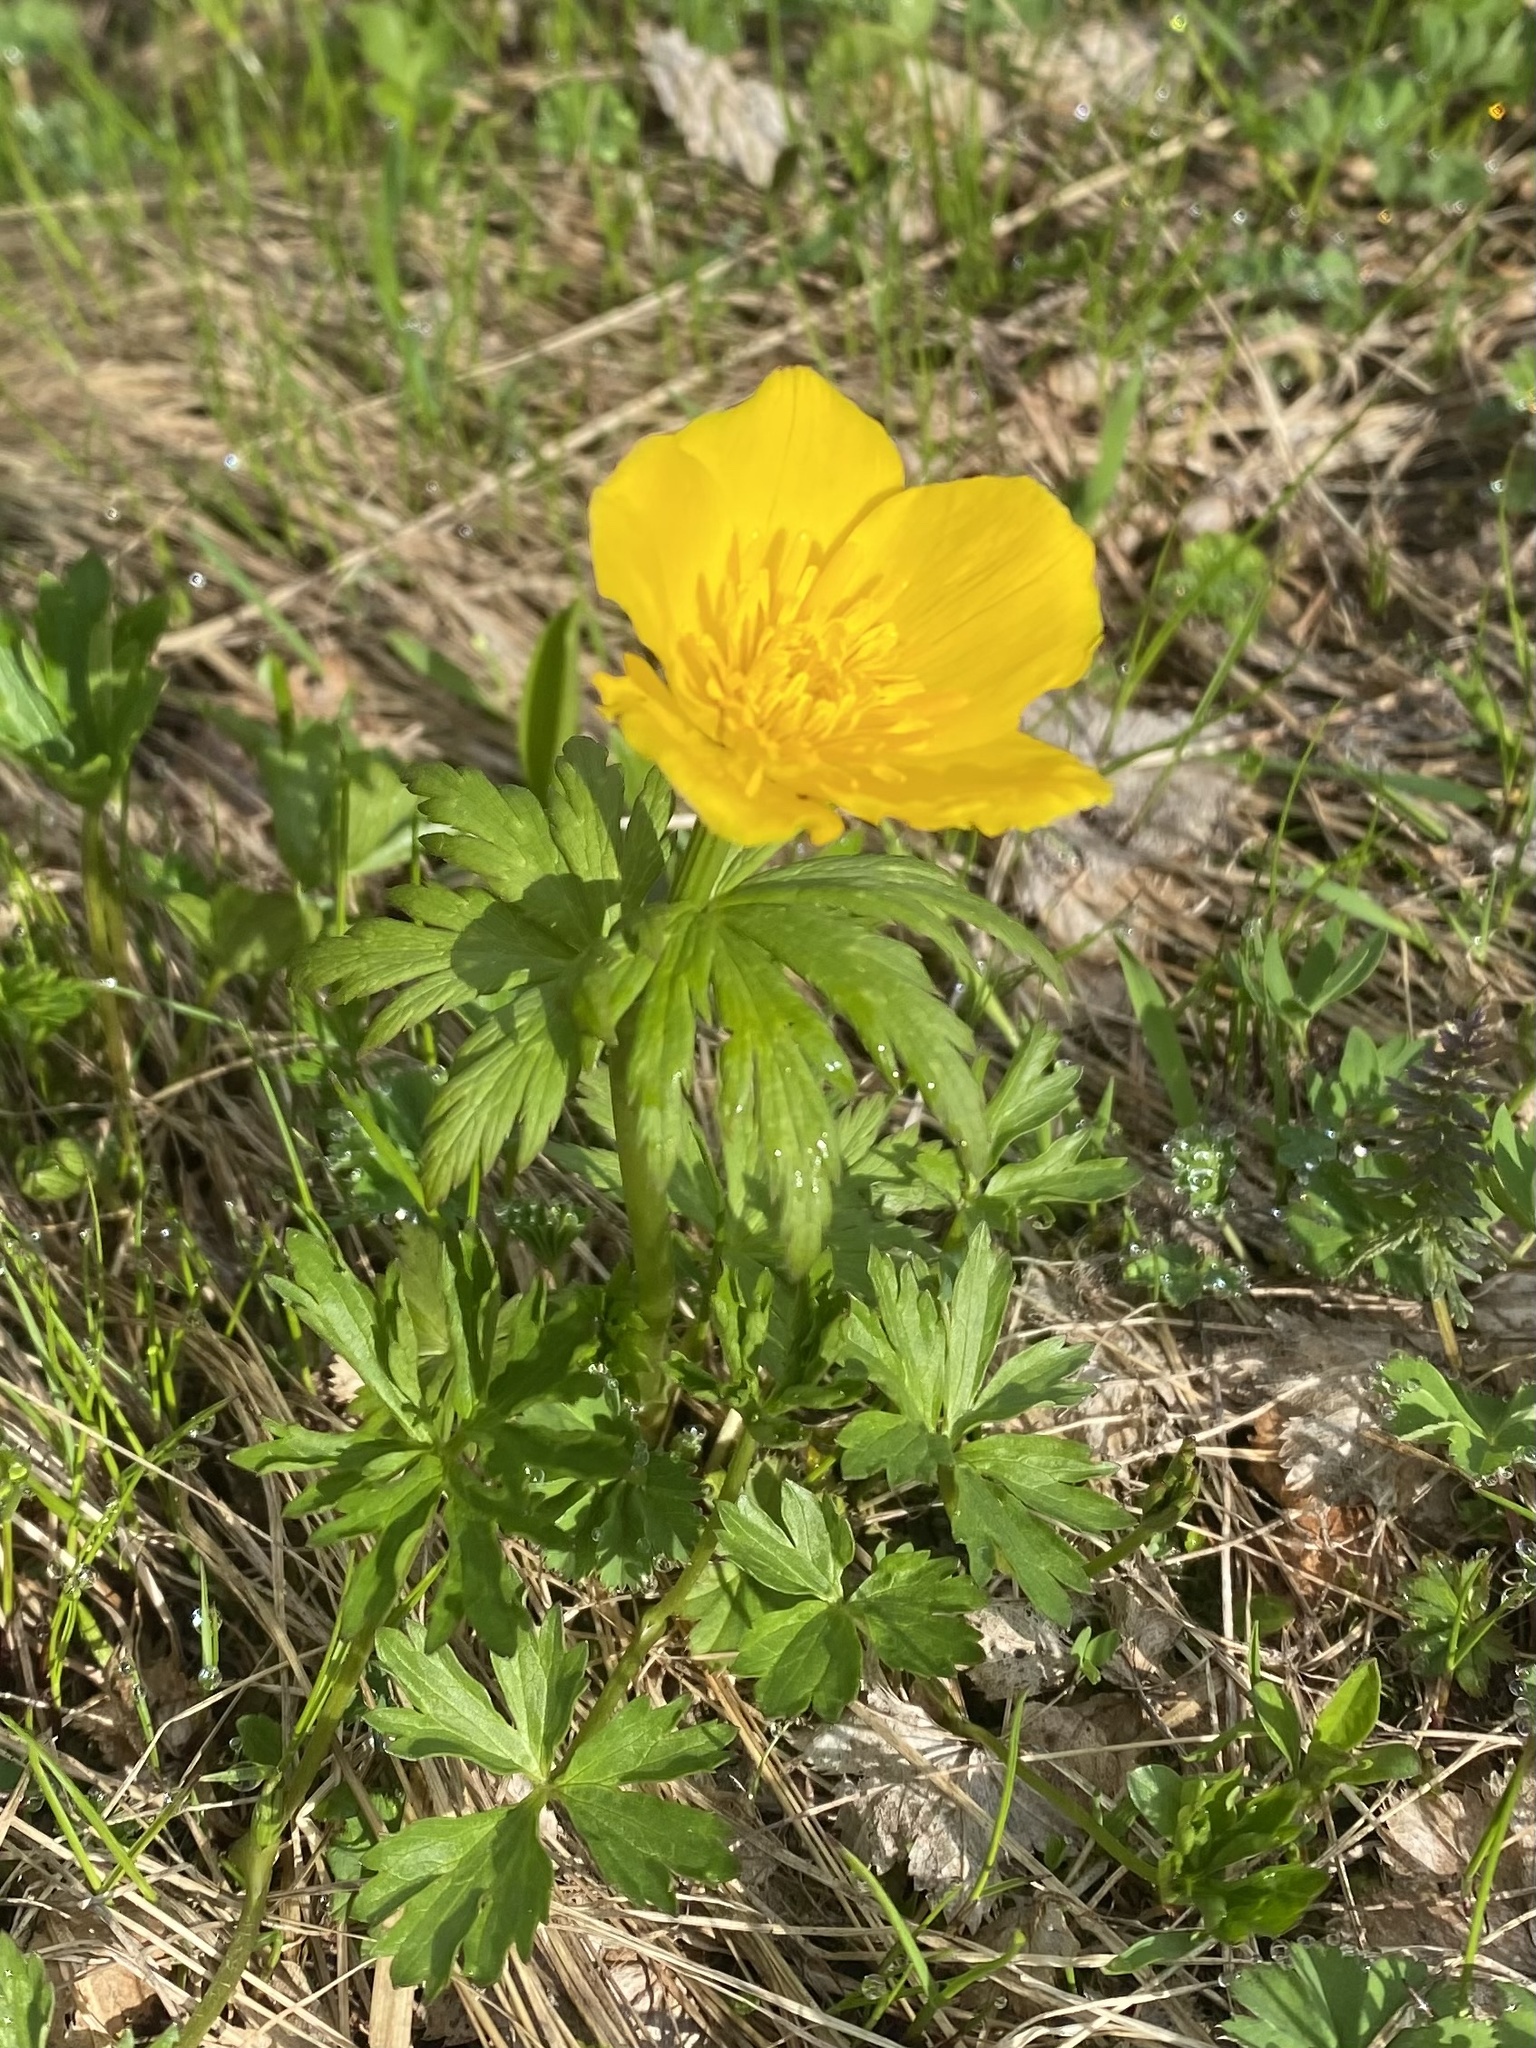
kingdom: Plantae
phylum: Tracheophyta
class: Magnoliopsida
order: Ranunculales
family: Ranunculaceae
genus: Trollius
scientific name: Trollius ranunculinus
